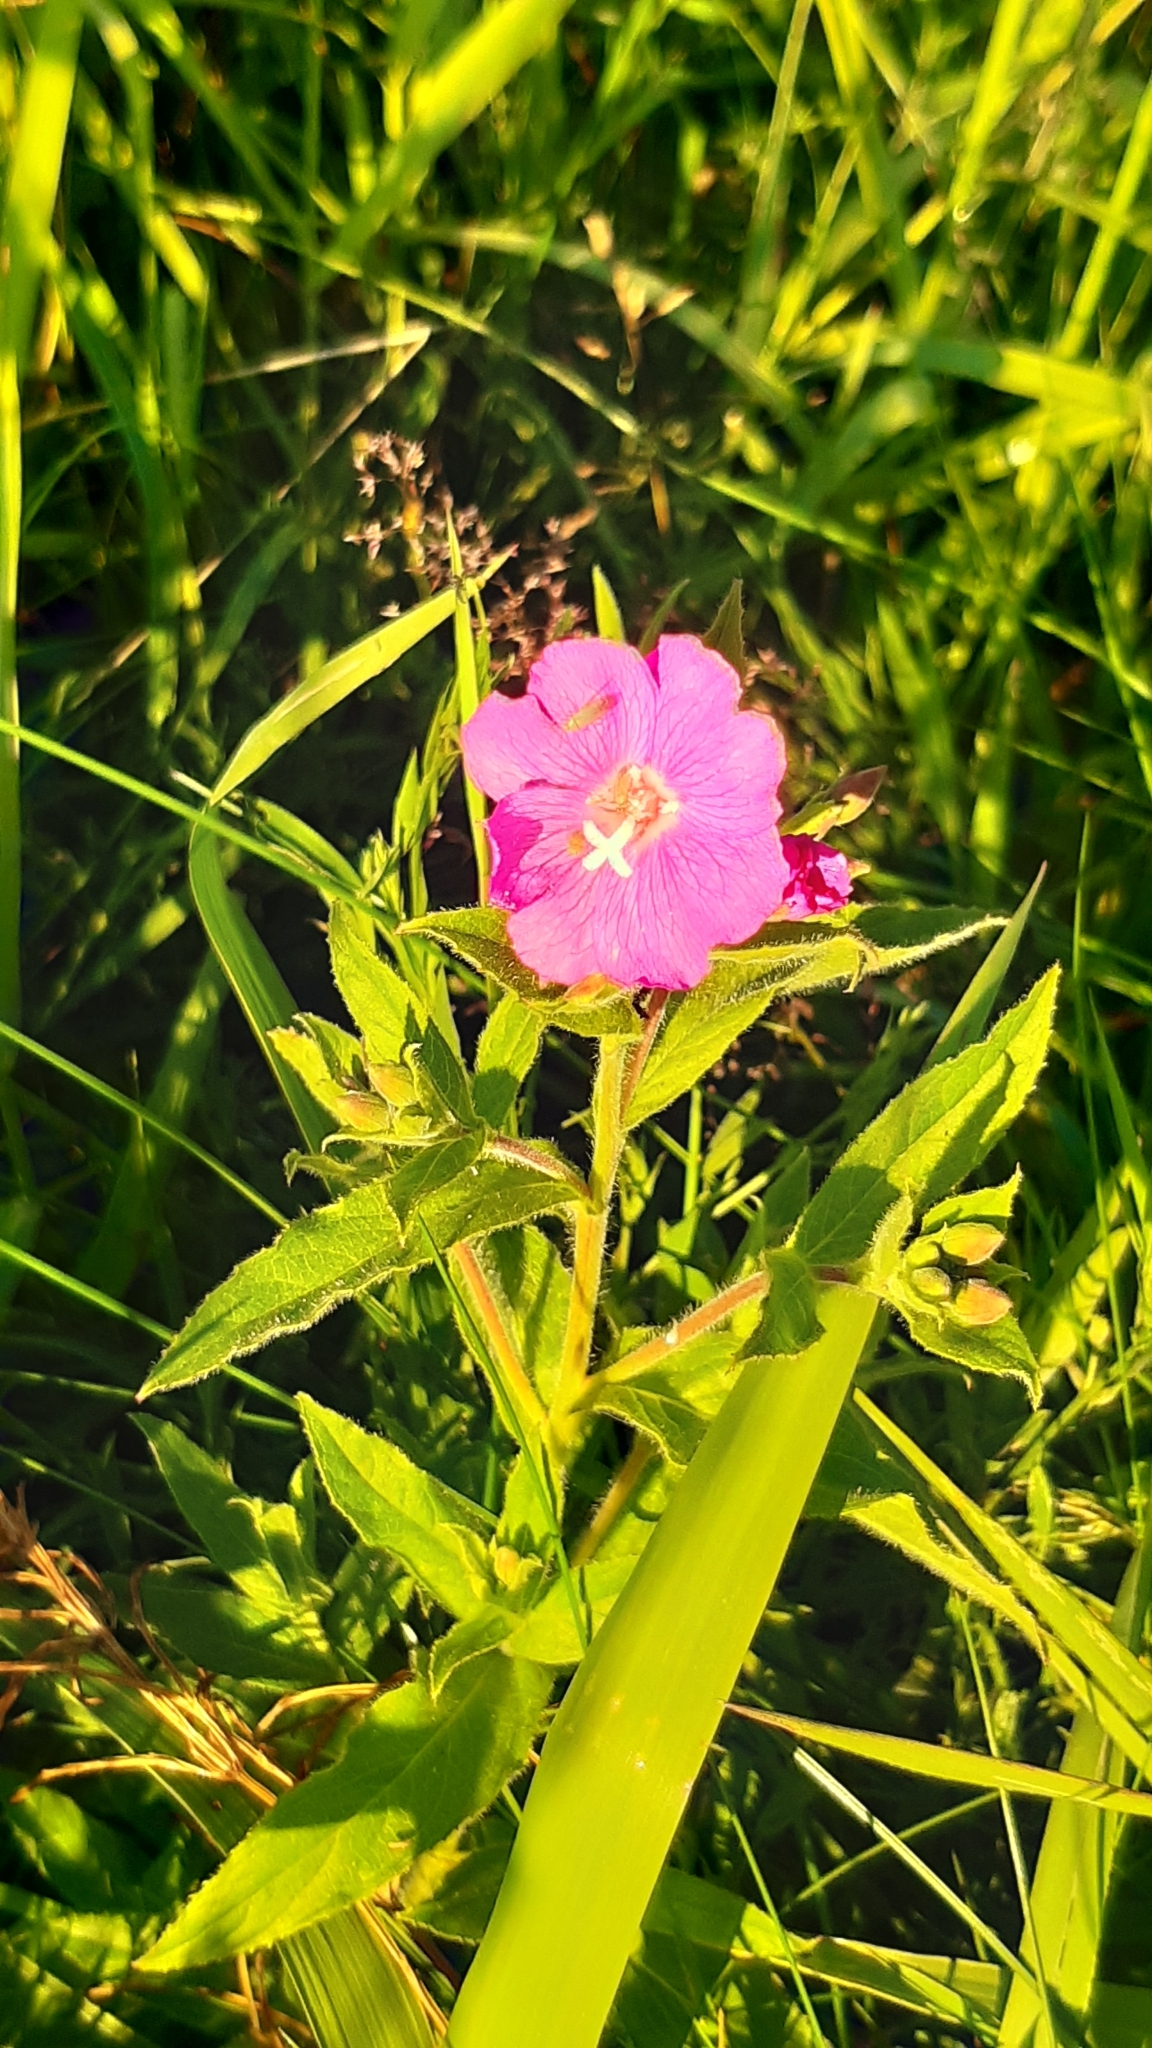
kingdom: Plantae
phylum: Tracheophyta
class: Magnoliopsida
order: Myrtales
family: Onagraceae
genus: Epilobium
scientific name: Epilobium hirsutum
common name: Great willowherb
